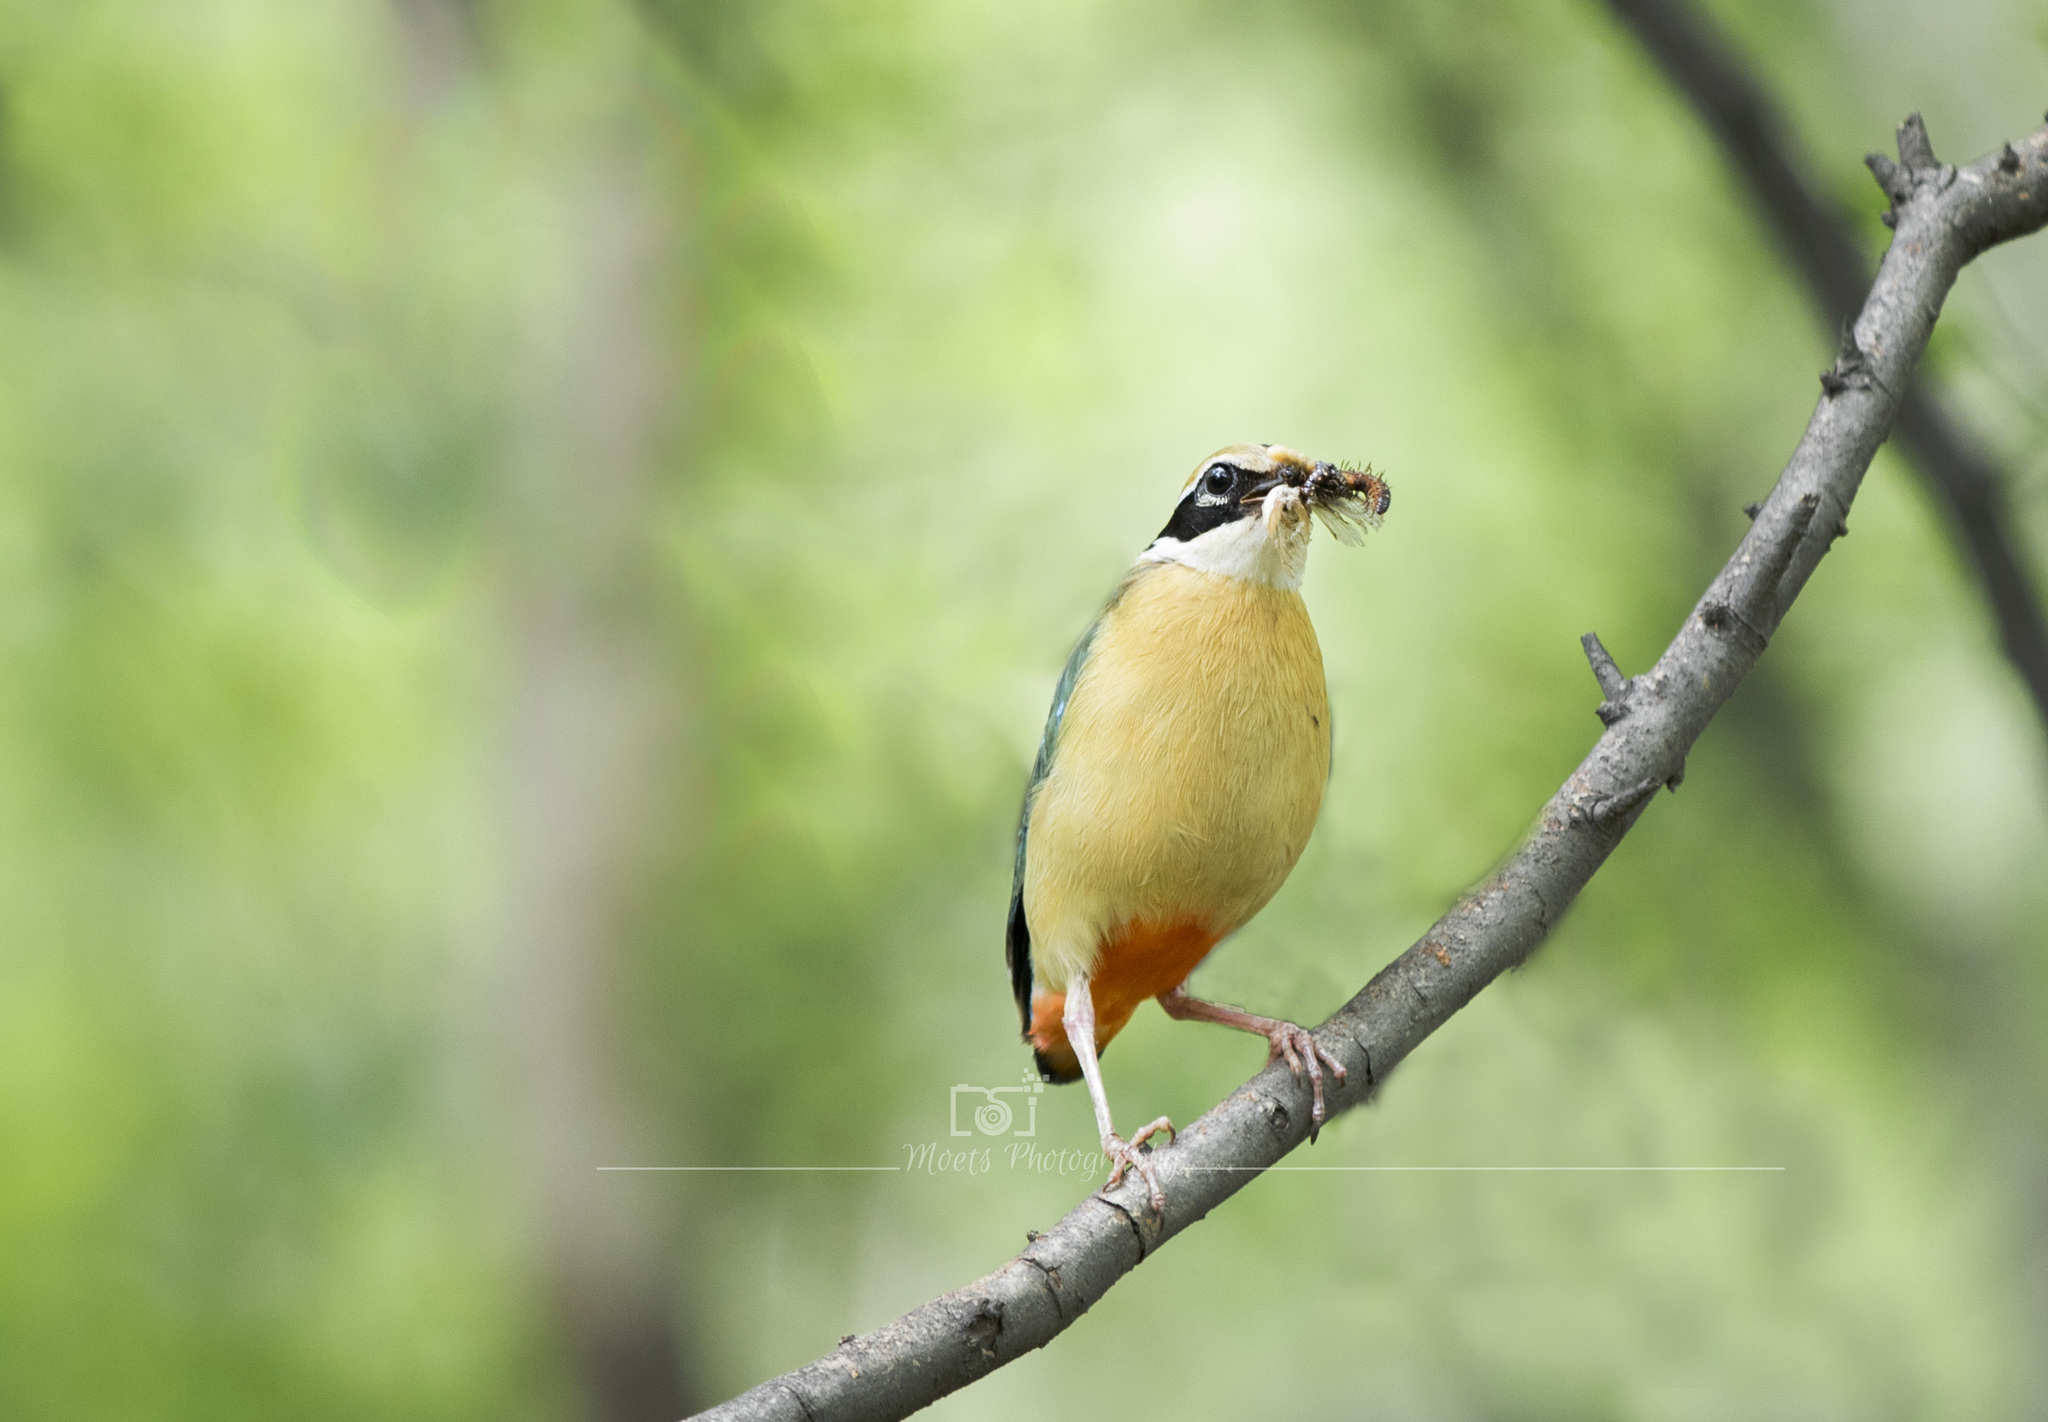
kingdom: Animalia
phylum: Chordata
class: Aves
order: Passeriformes
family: Pittidae
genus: Pitta
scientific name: Pitta brachyura
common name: Indian pitta
